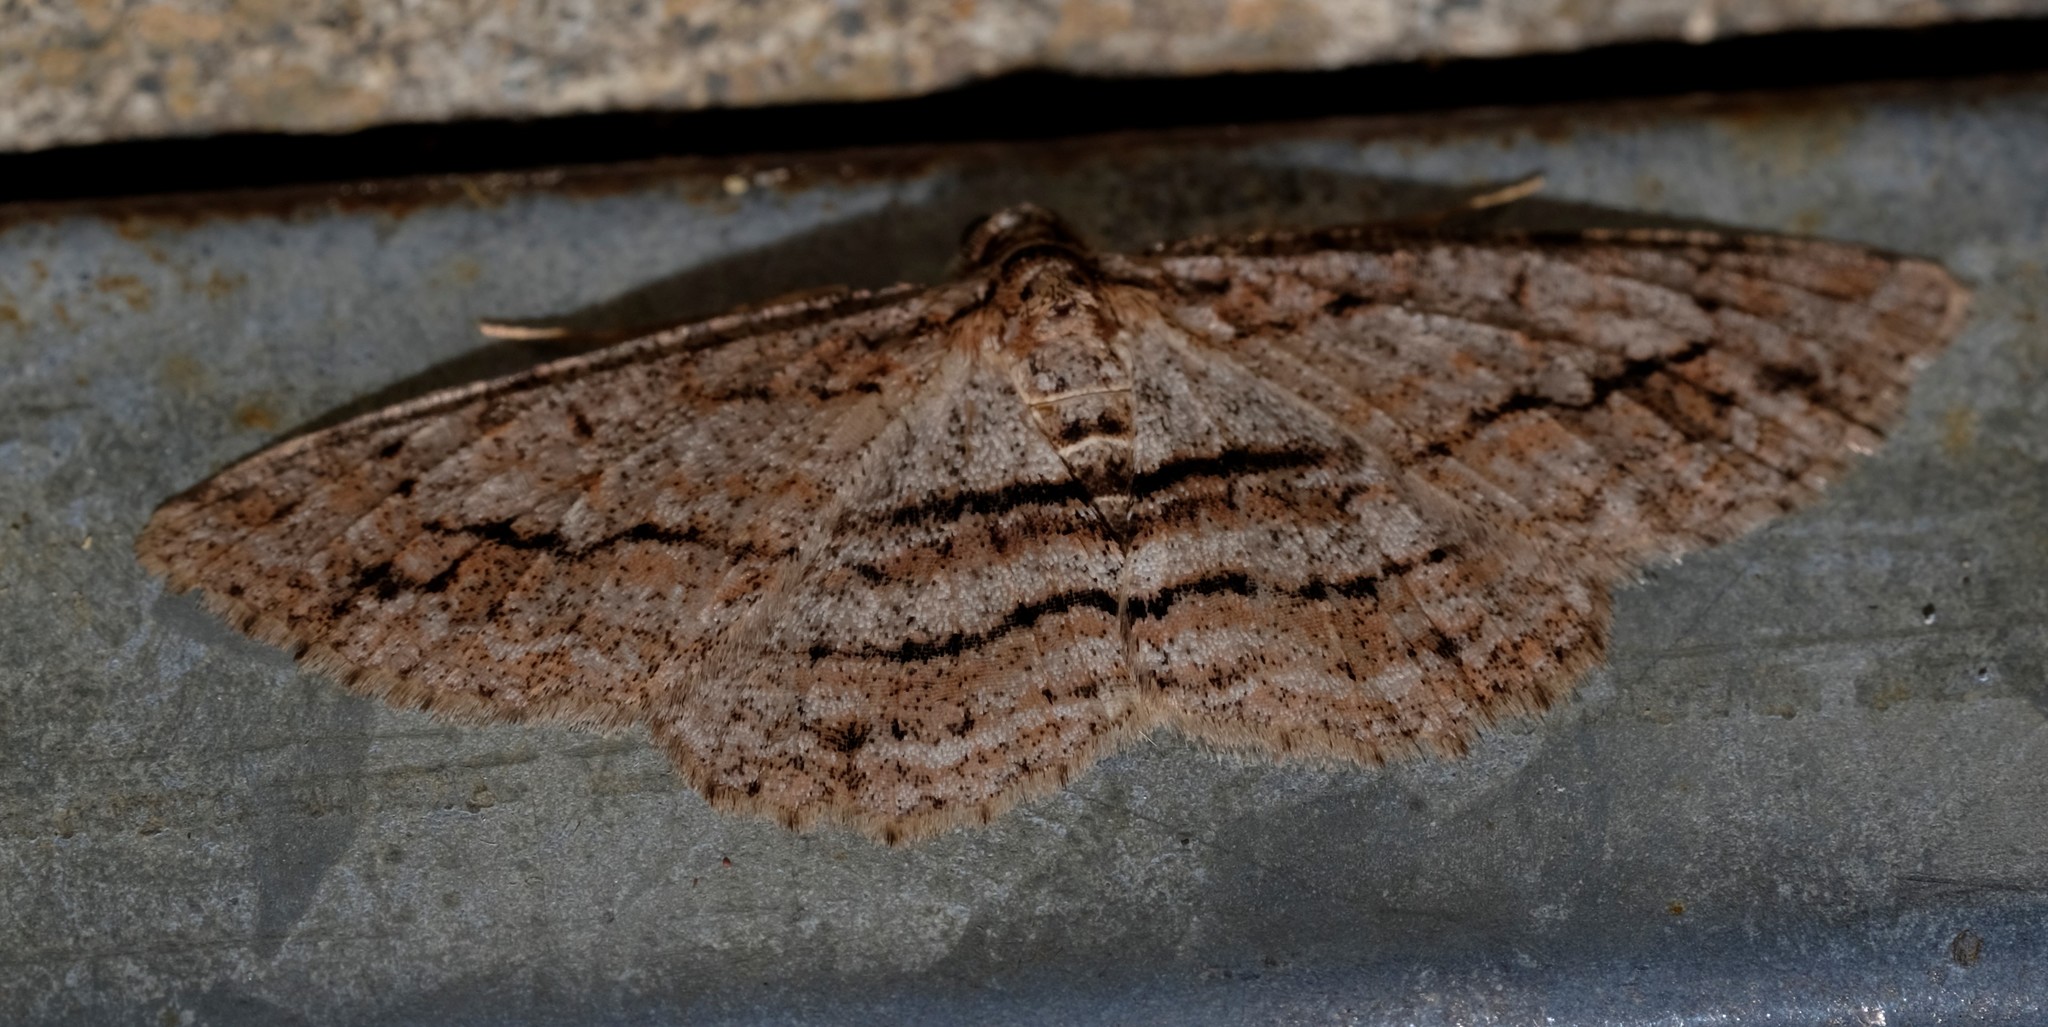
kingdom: Animalia
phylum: Arthropoda
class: Insecta
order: Lepidoptera
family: Geometridae
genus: Didymoctenia
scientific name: Didymoctenia exsuperata
